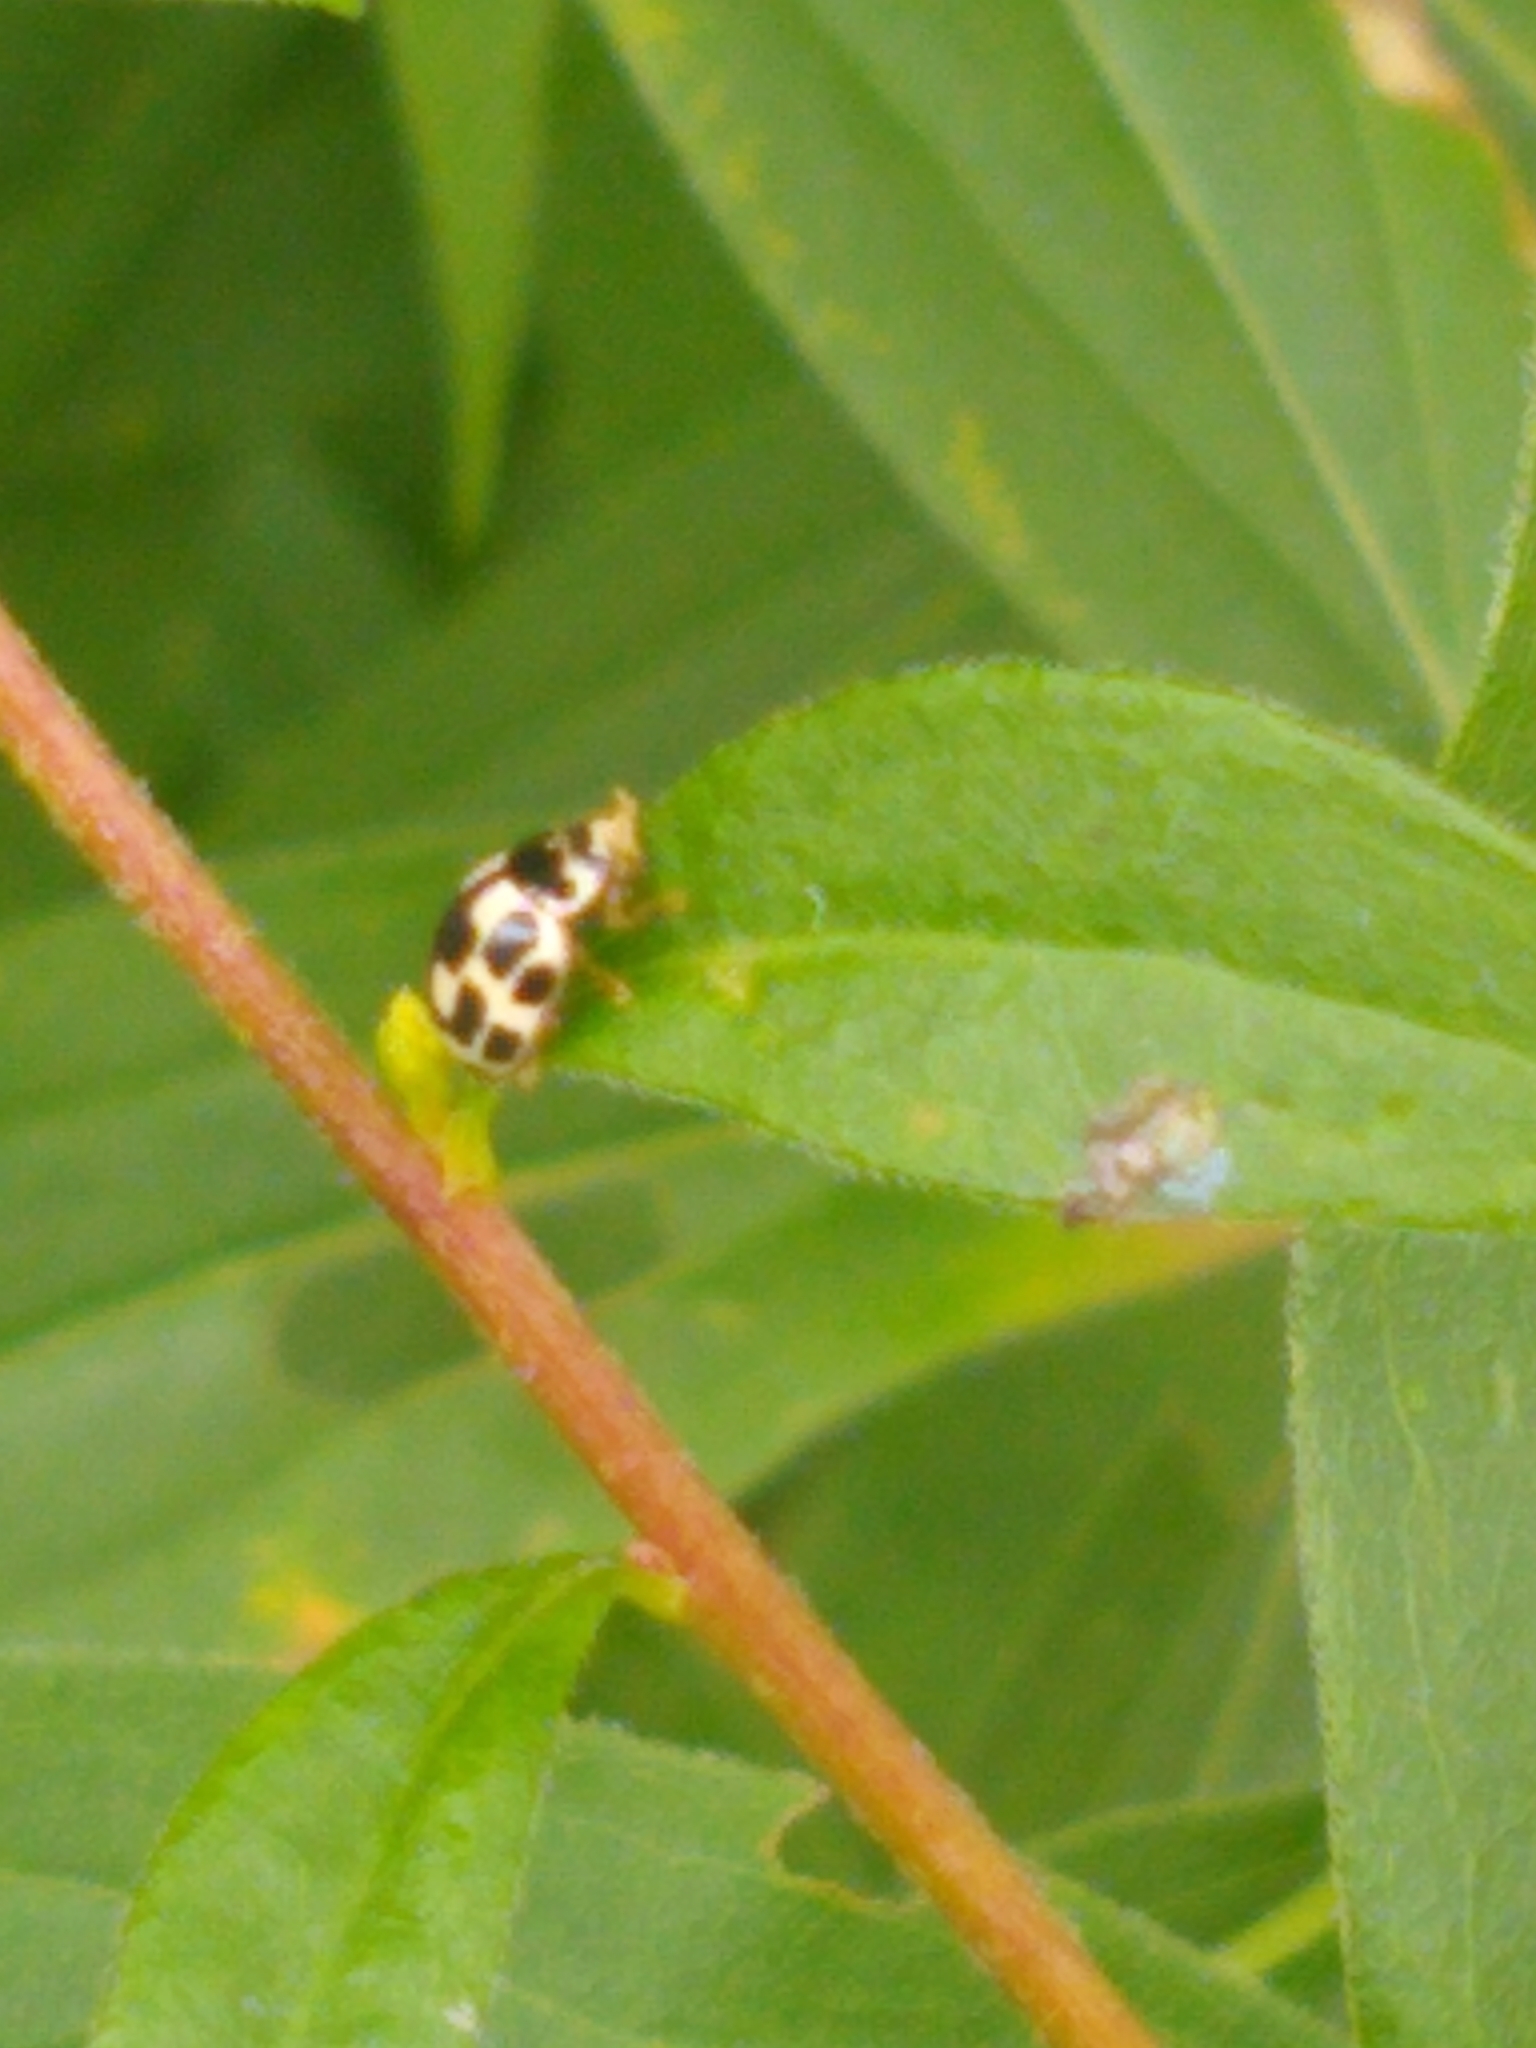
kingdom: Animalia
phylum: Arthropoda
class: Insecta
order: Coleoptera
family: Coccinellidae
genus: Propylaea
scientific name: Propylaea quatuordecimpunctata
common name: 14-spotted ladybird beetle
